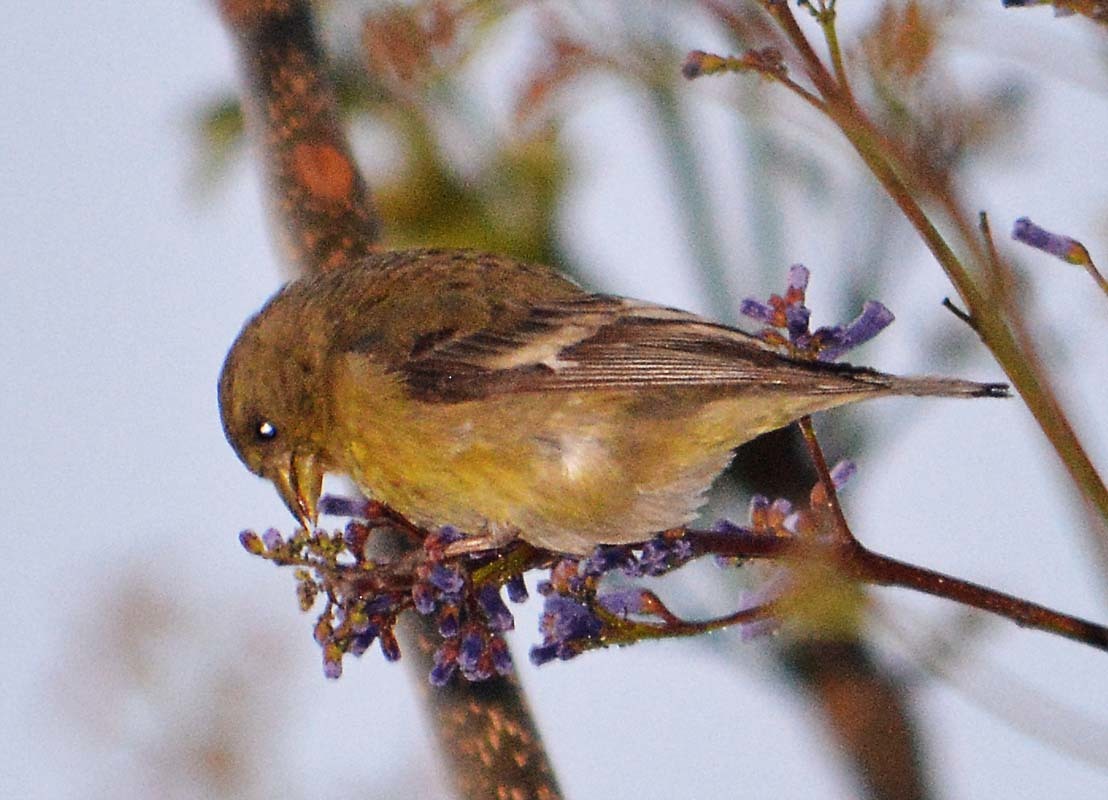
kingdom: Animalia
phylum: Chordata
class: Aves
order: Passeriformes
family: Fringillidae
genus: Spinus
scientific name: Spinus psaltria
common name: Lesser goldfinch
